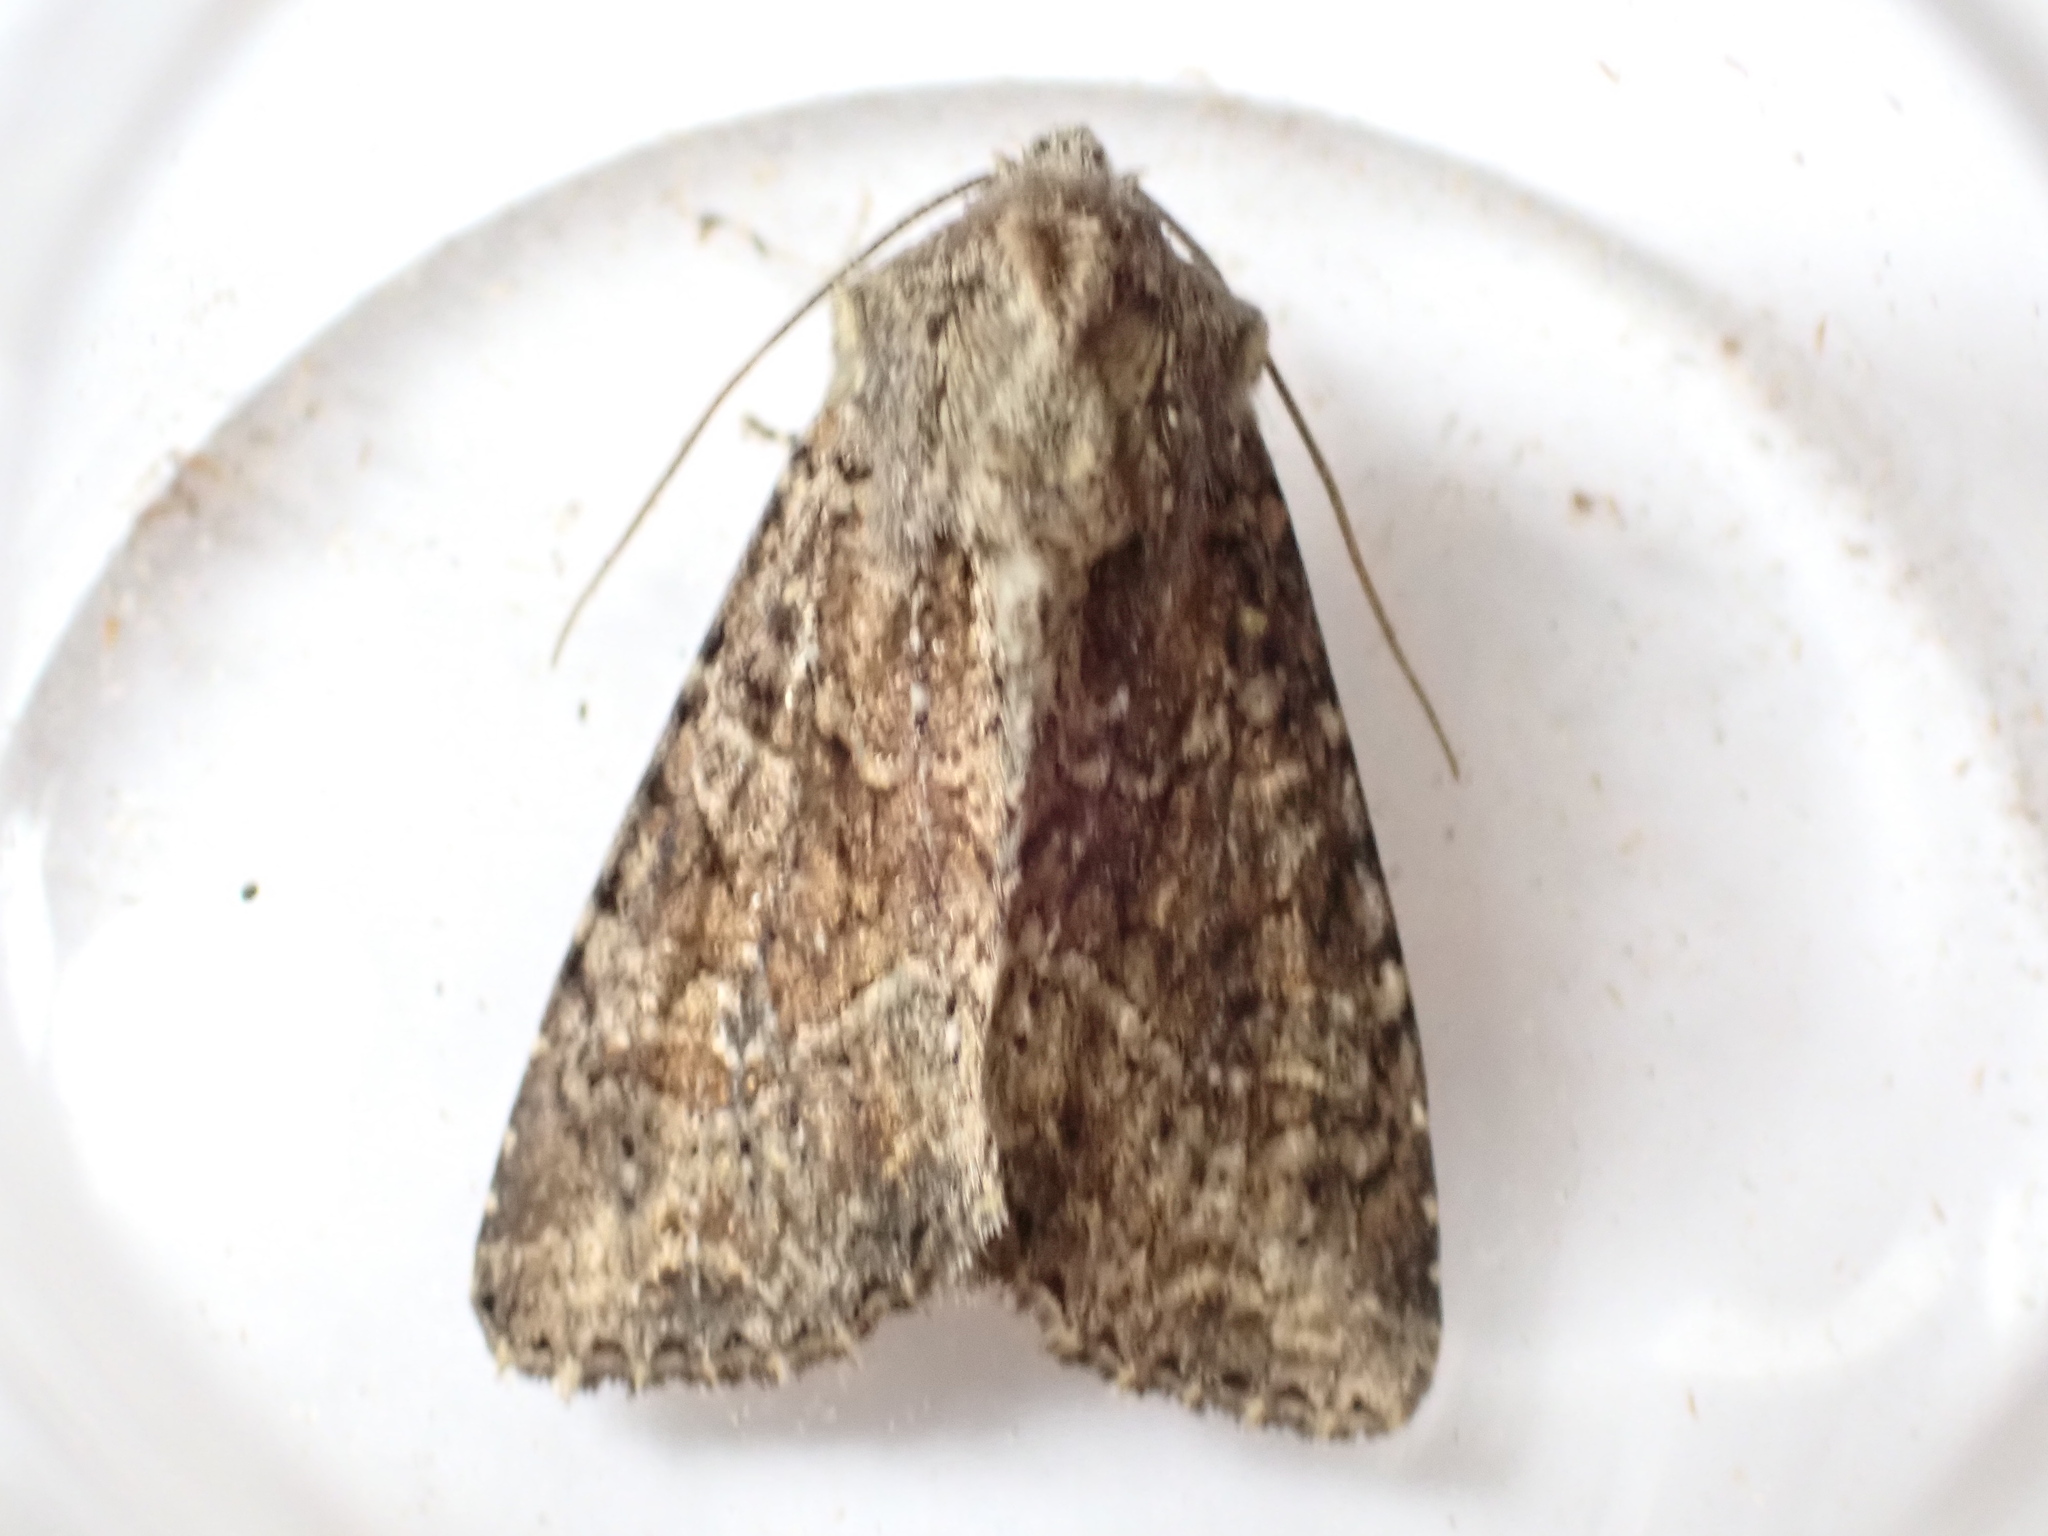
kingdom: Animalia
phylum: Arthropoda
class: Insecta
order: Lepidoptera
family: Noctuidae
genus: Apamea
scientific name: Apamea remissa
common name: Dusky brocade
